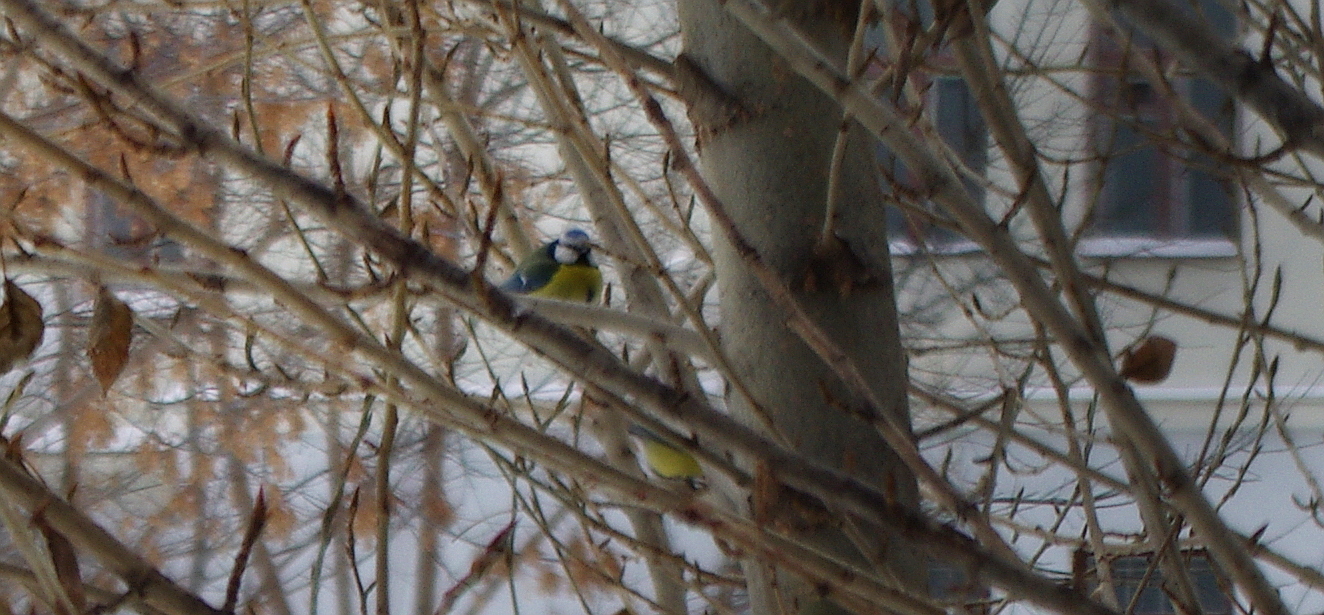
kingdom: Animalia
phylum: Chordata
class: Aves
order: Passeriformes
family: Paridae
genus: Cyanistes
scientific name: Cyanistes caeruleus
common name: Eurasian blue tit
